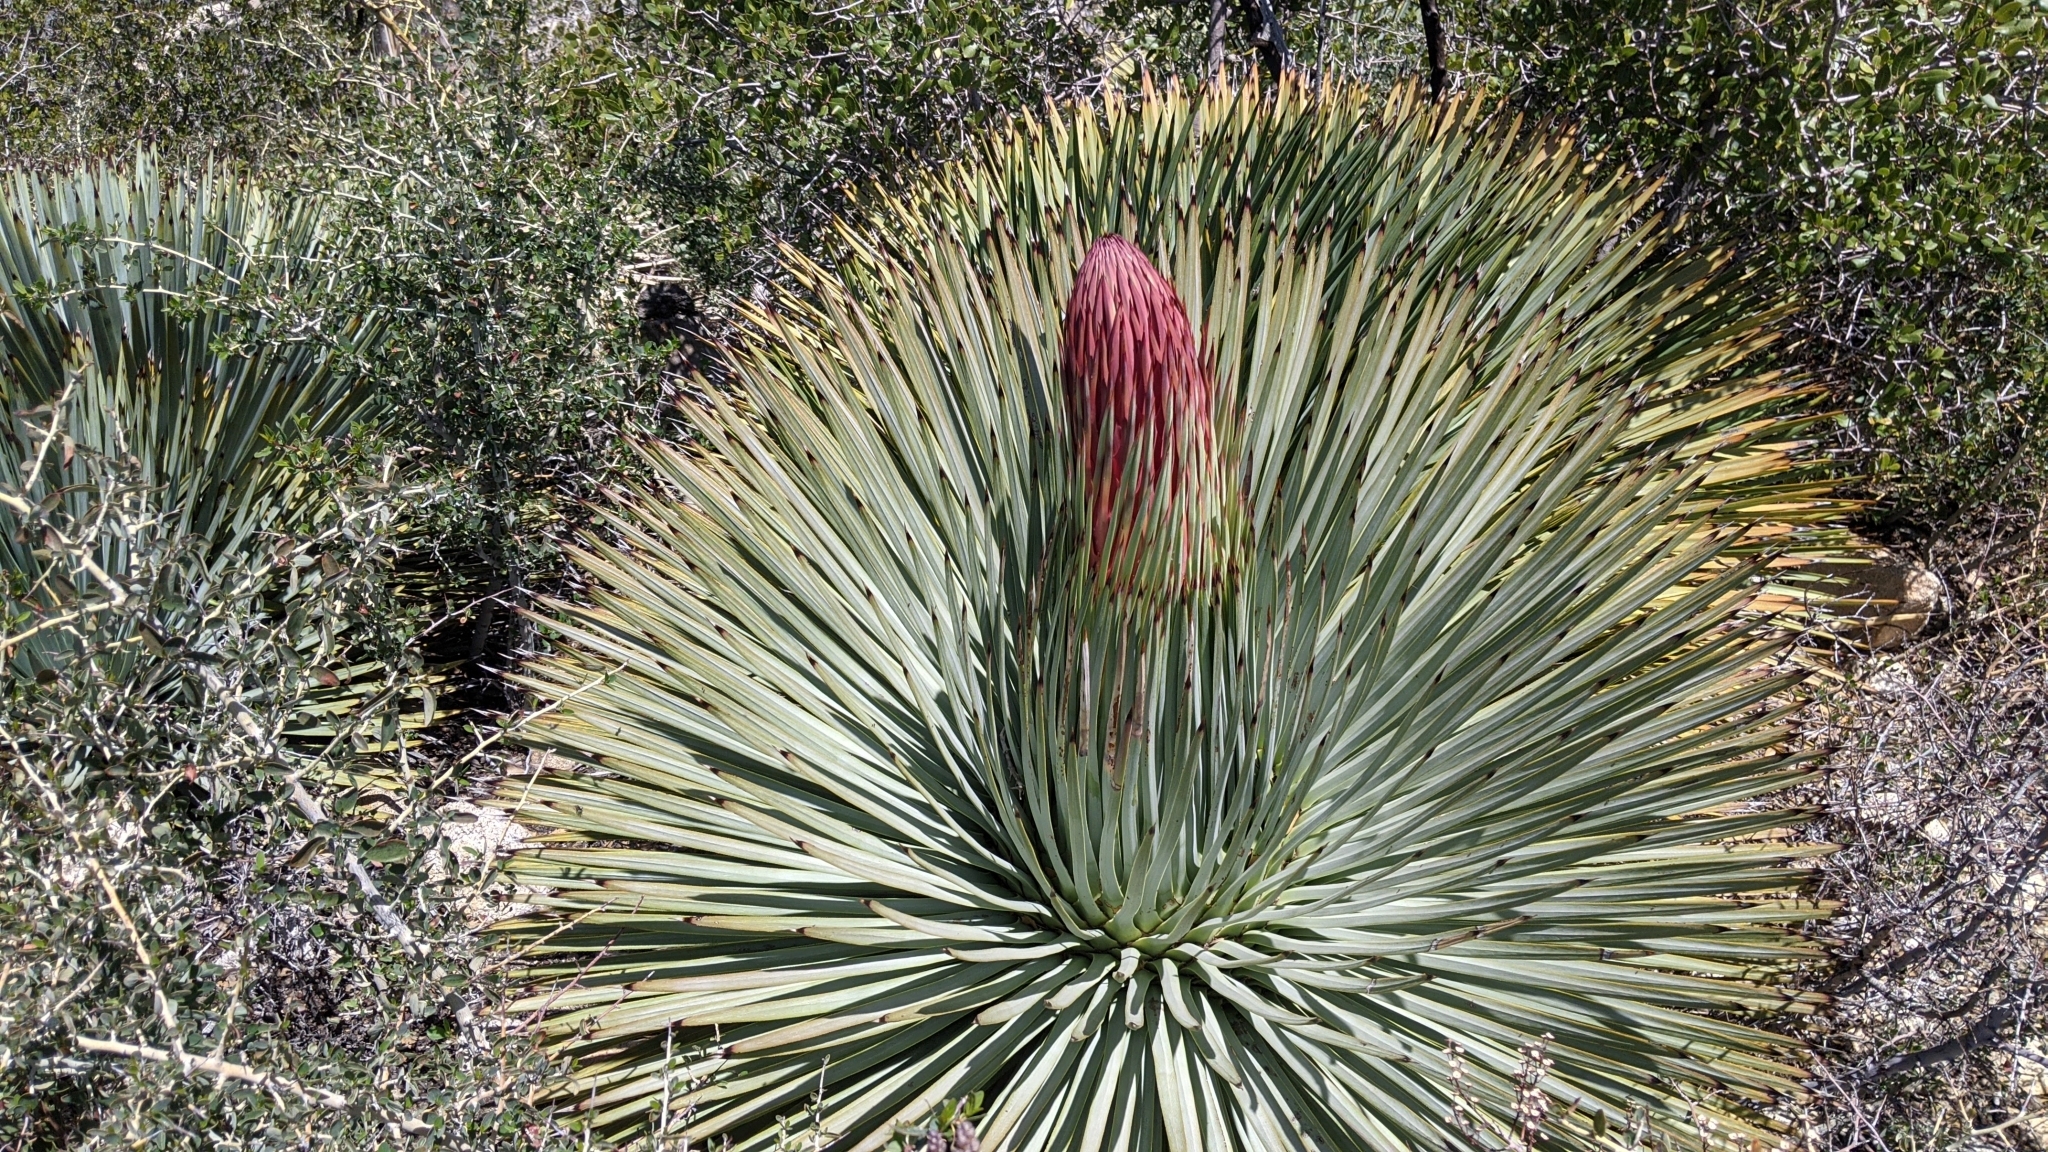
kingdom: Plantae
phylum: Tracheophyta
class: Liliopsida
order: Asparagales
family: Asparagaceae
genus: Hesperoyucca
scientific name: Hesperoyucca whipplei
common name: Our lord's-candle
